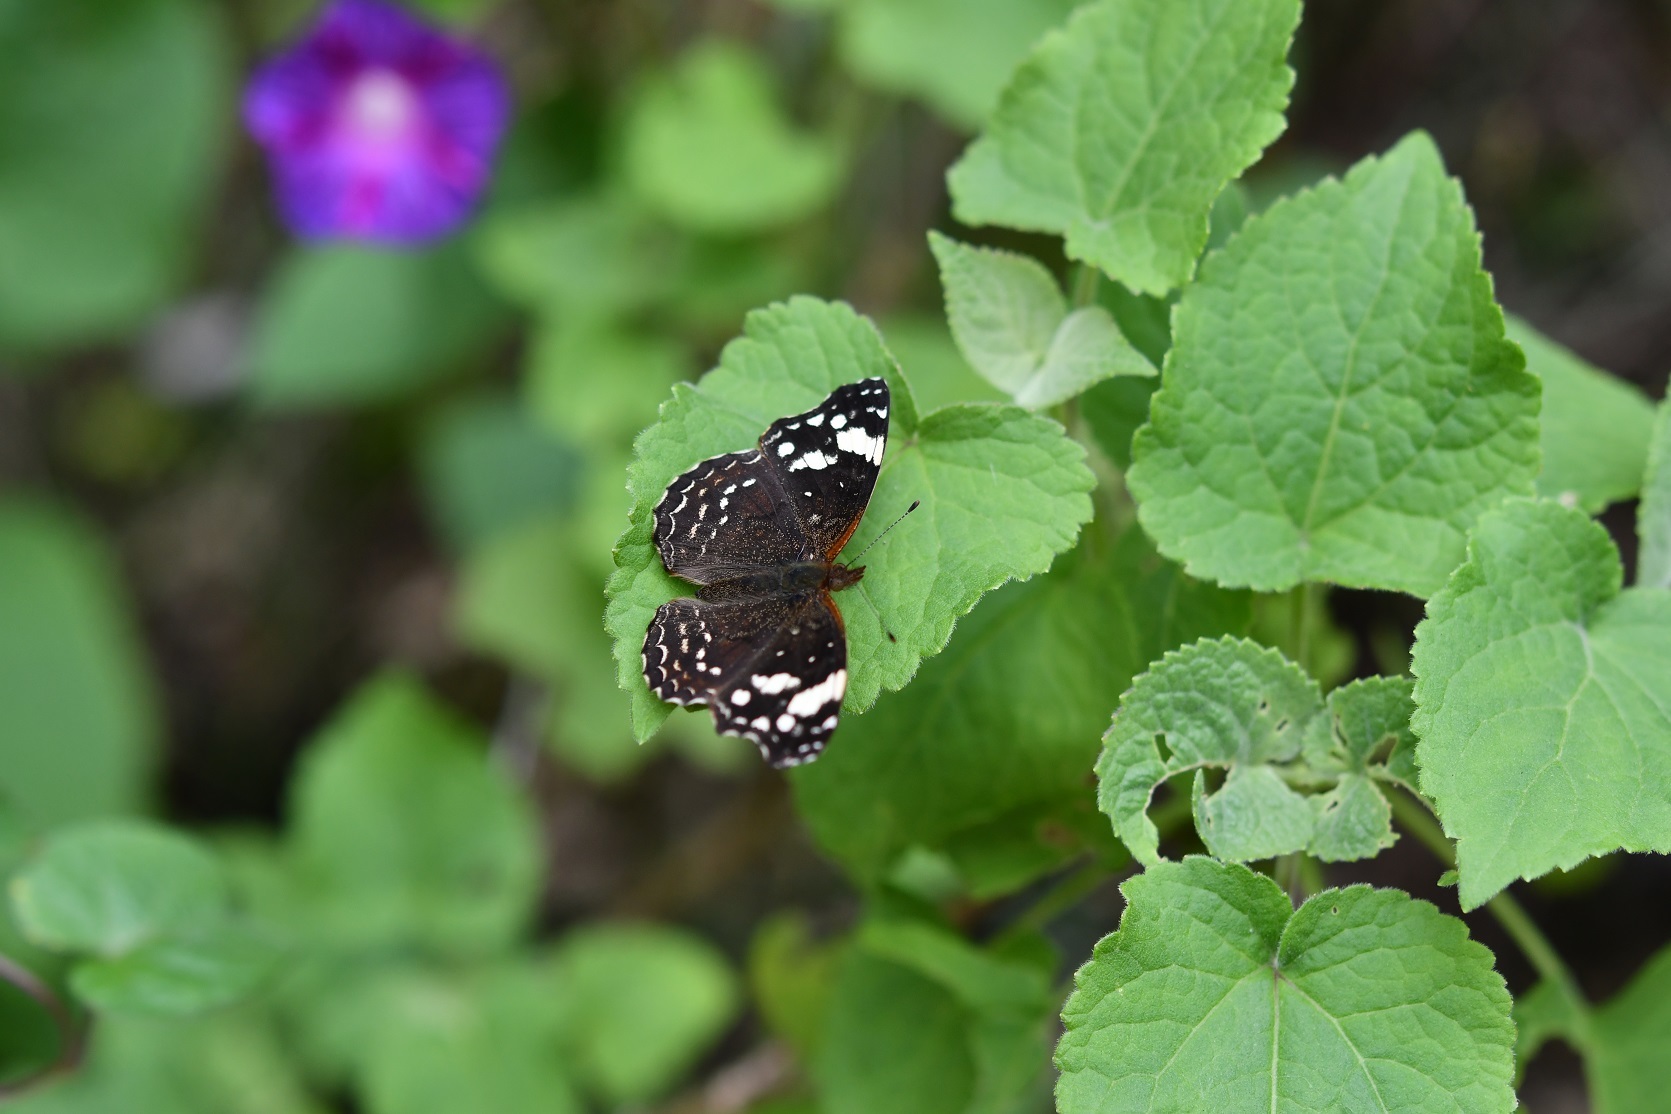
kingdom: Animalia
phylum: Arthropoda
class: Insecta
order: Lepidoptera
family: Nymphalidae
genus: Anthanassa
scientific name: Anthanassa sitalces
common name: Montane crescent
